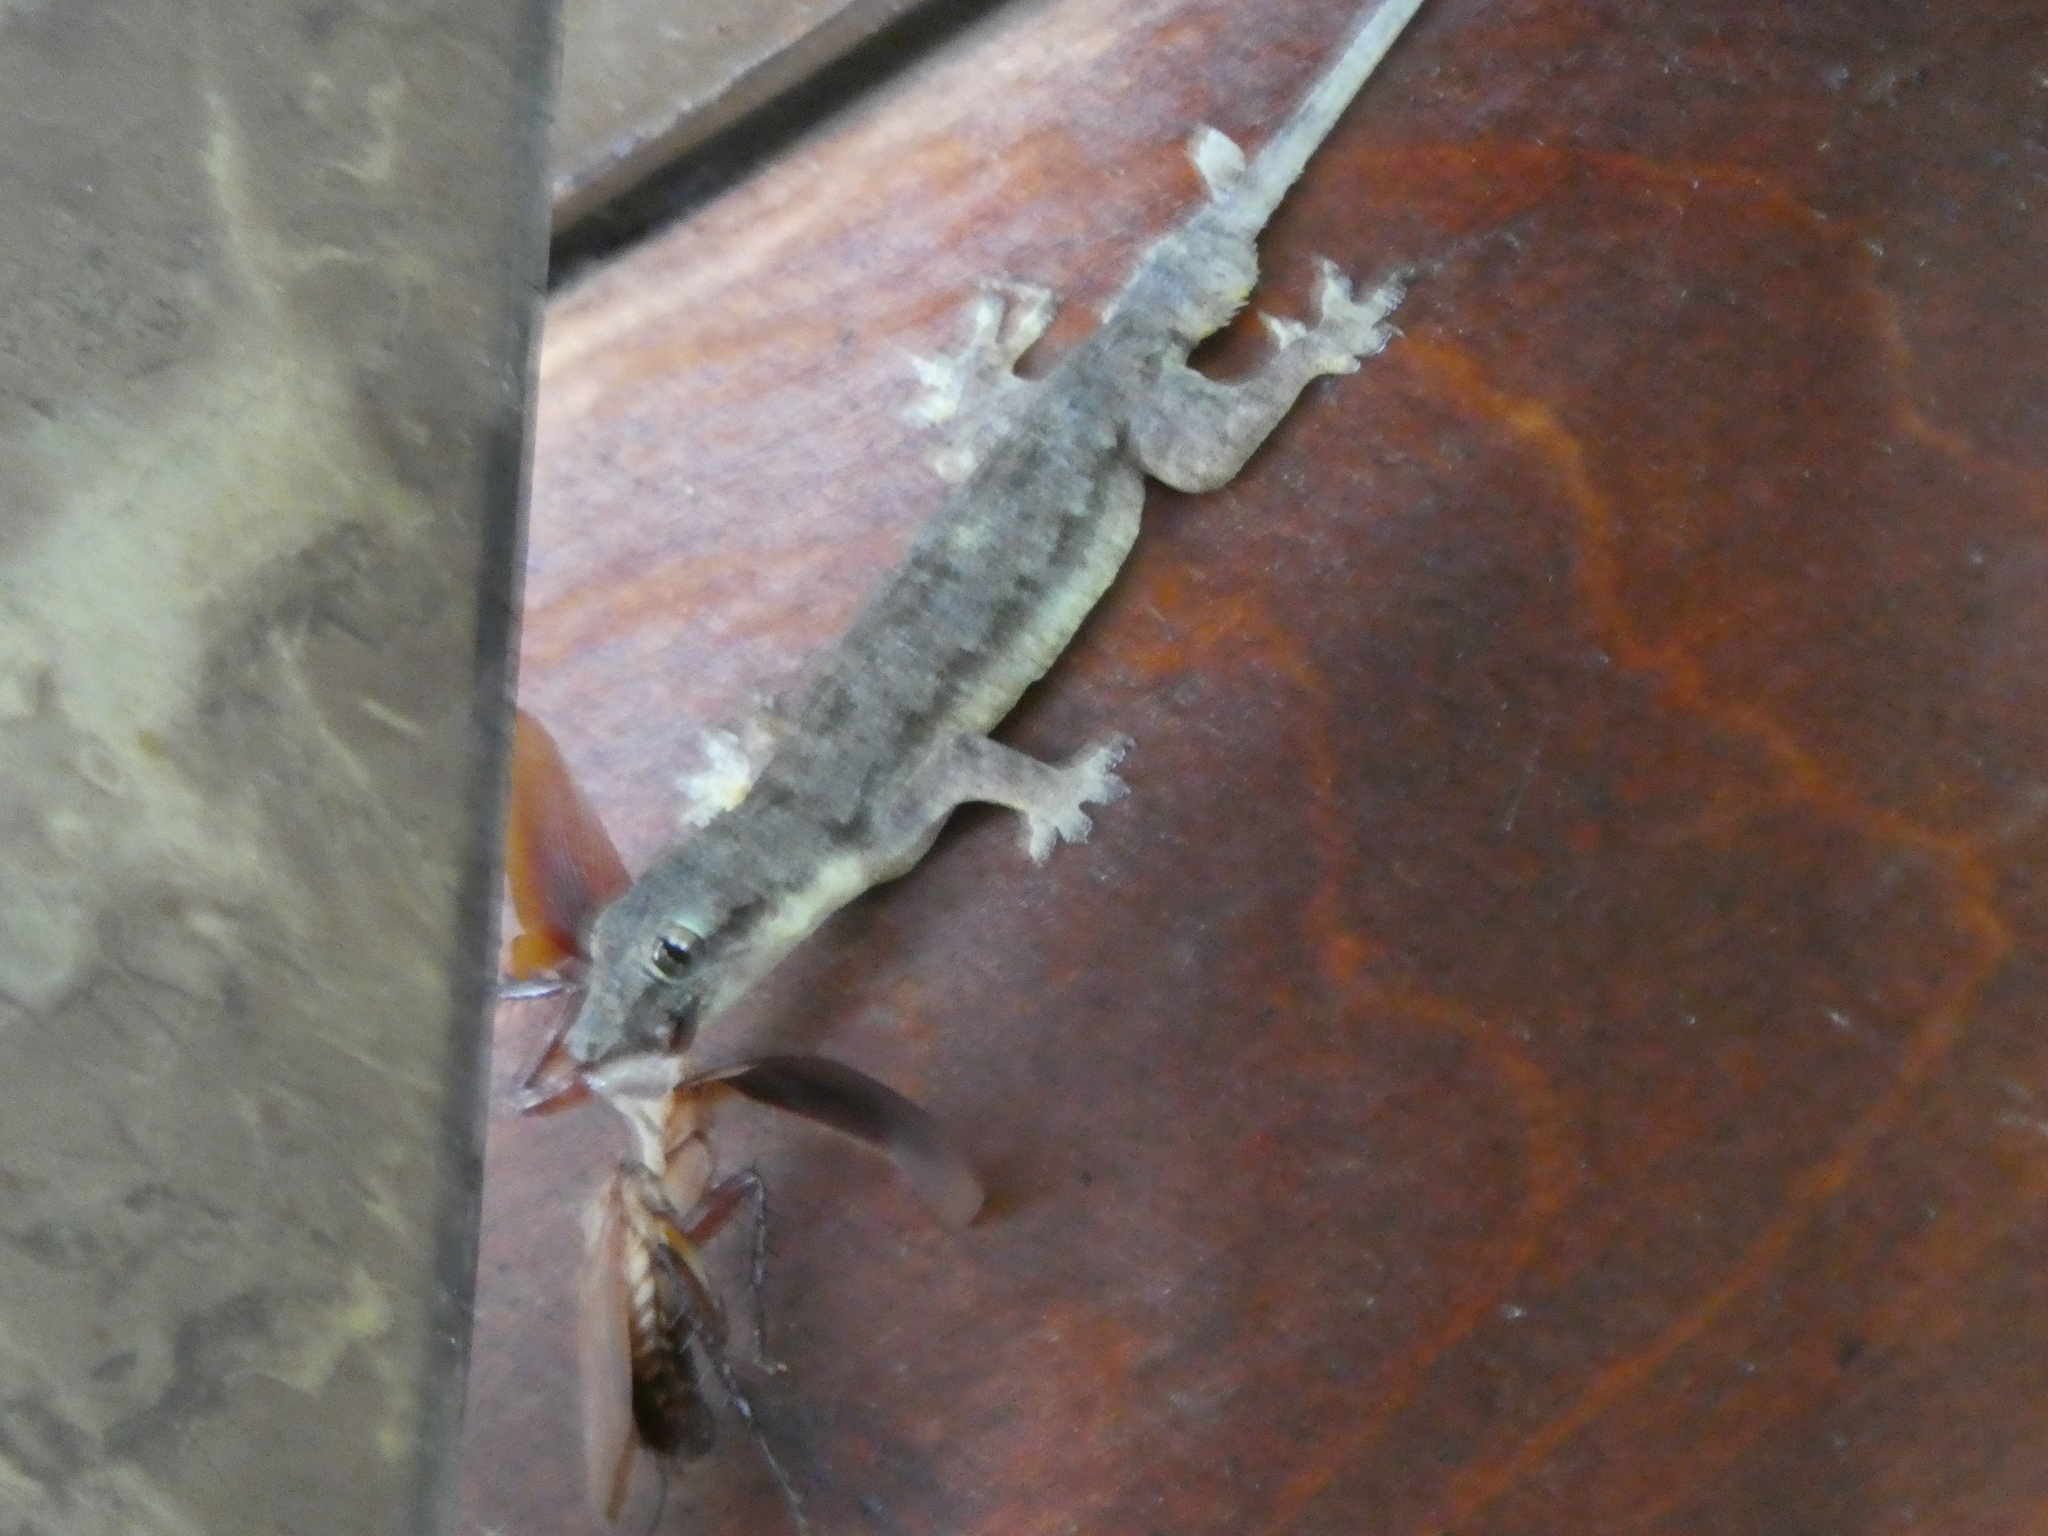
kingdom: Animalia
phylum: Chordata
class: Squamata
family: Gekkonidae
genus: Hemidactylus
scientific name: Hemidactylus platyurus
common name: Flat-tailed house gecko
